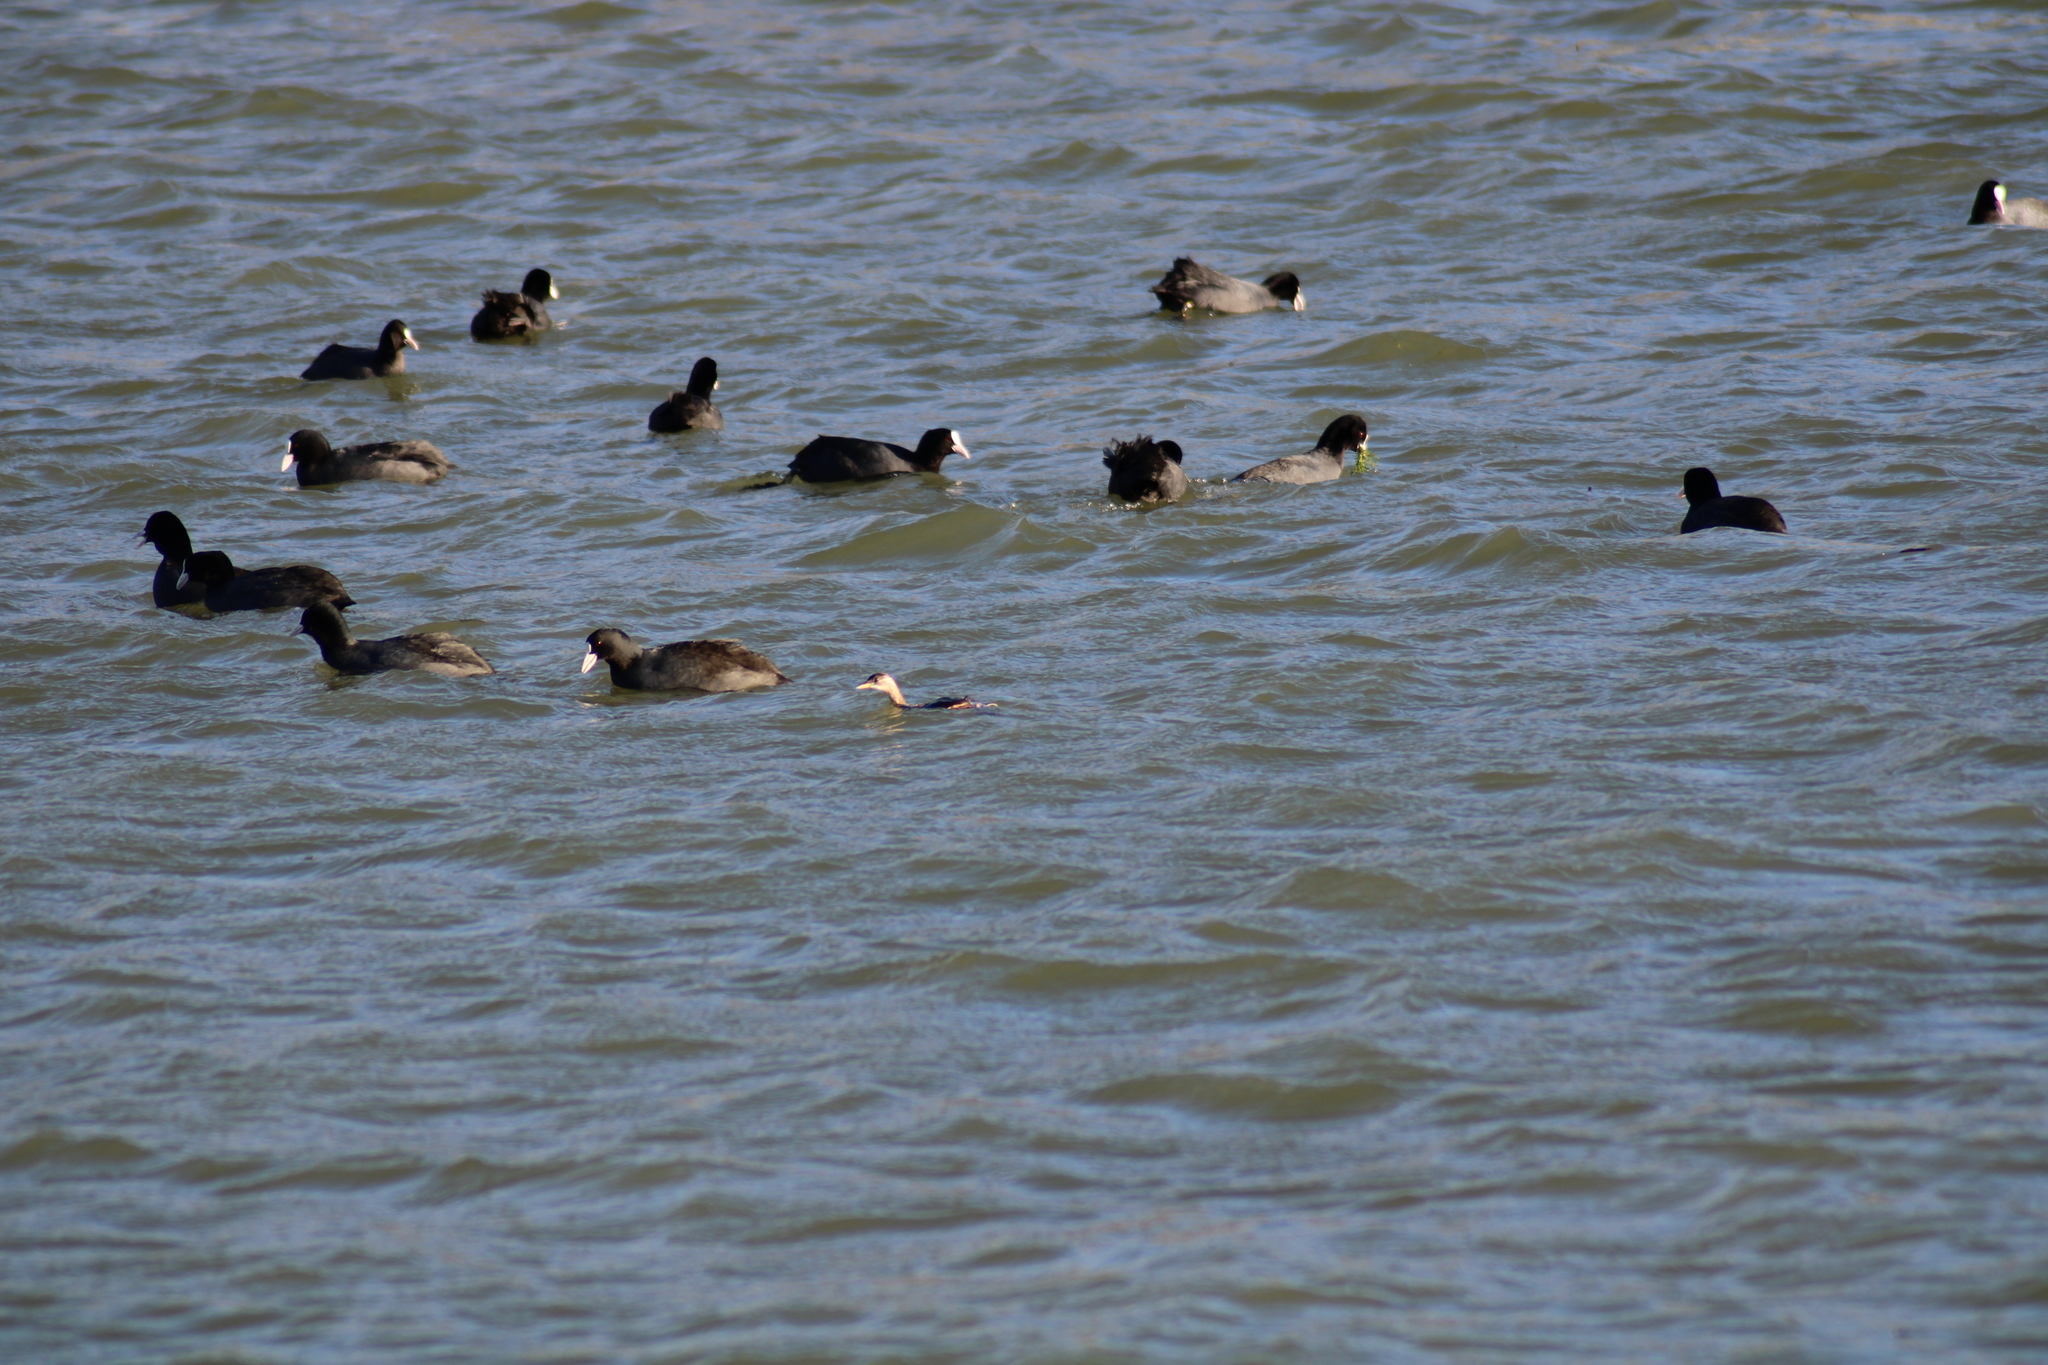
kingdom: Animalia
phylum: Chordata
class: Aves
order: Podicipediformes
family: Podicipedidae
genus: Tachybaptus
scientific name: Tachybaptus ruficollis
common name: Little grebe
